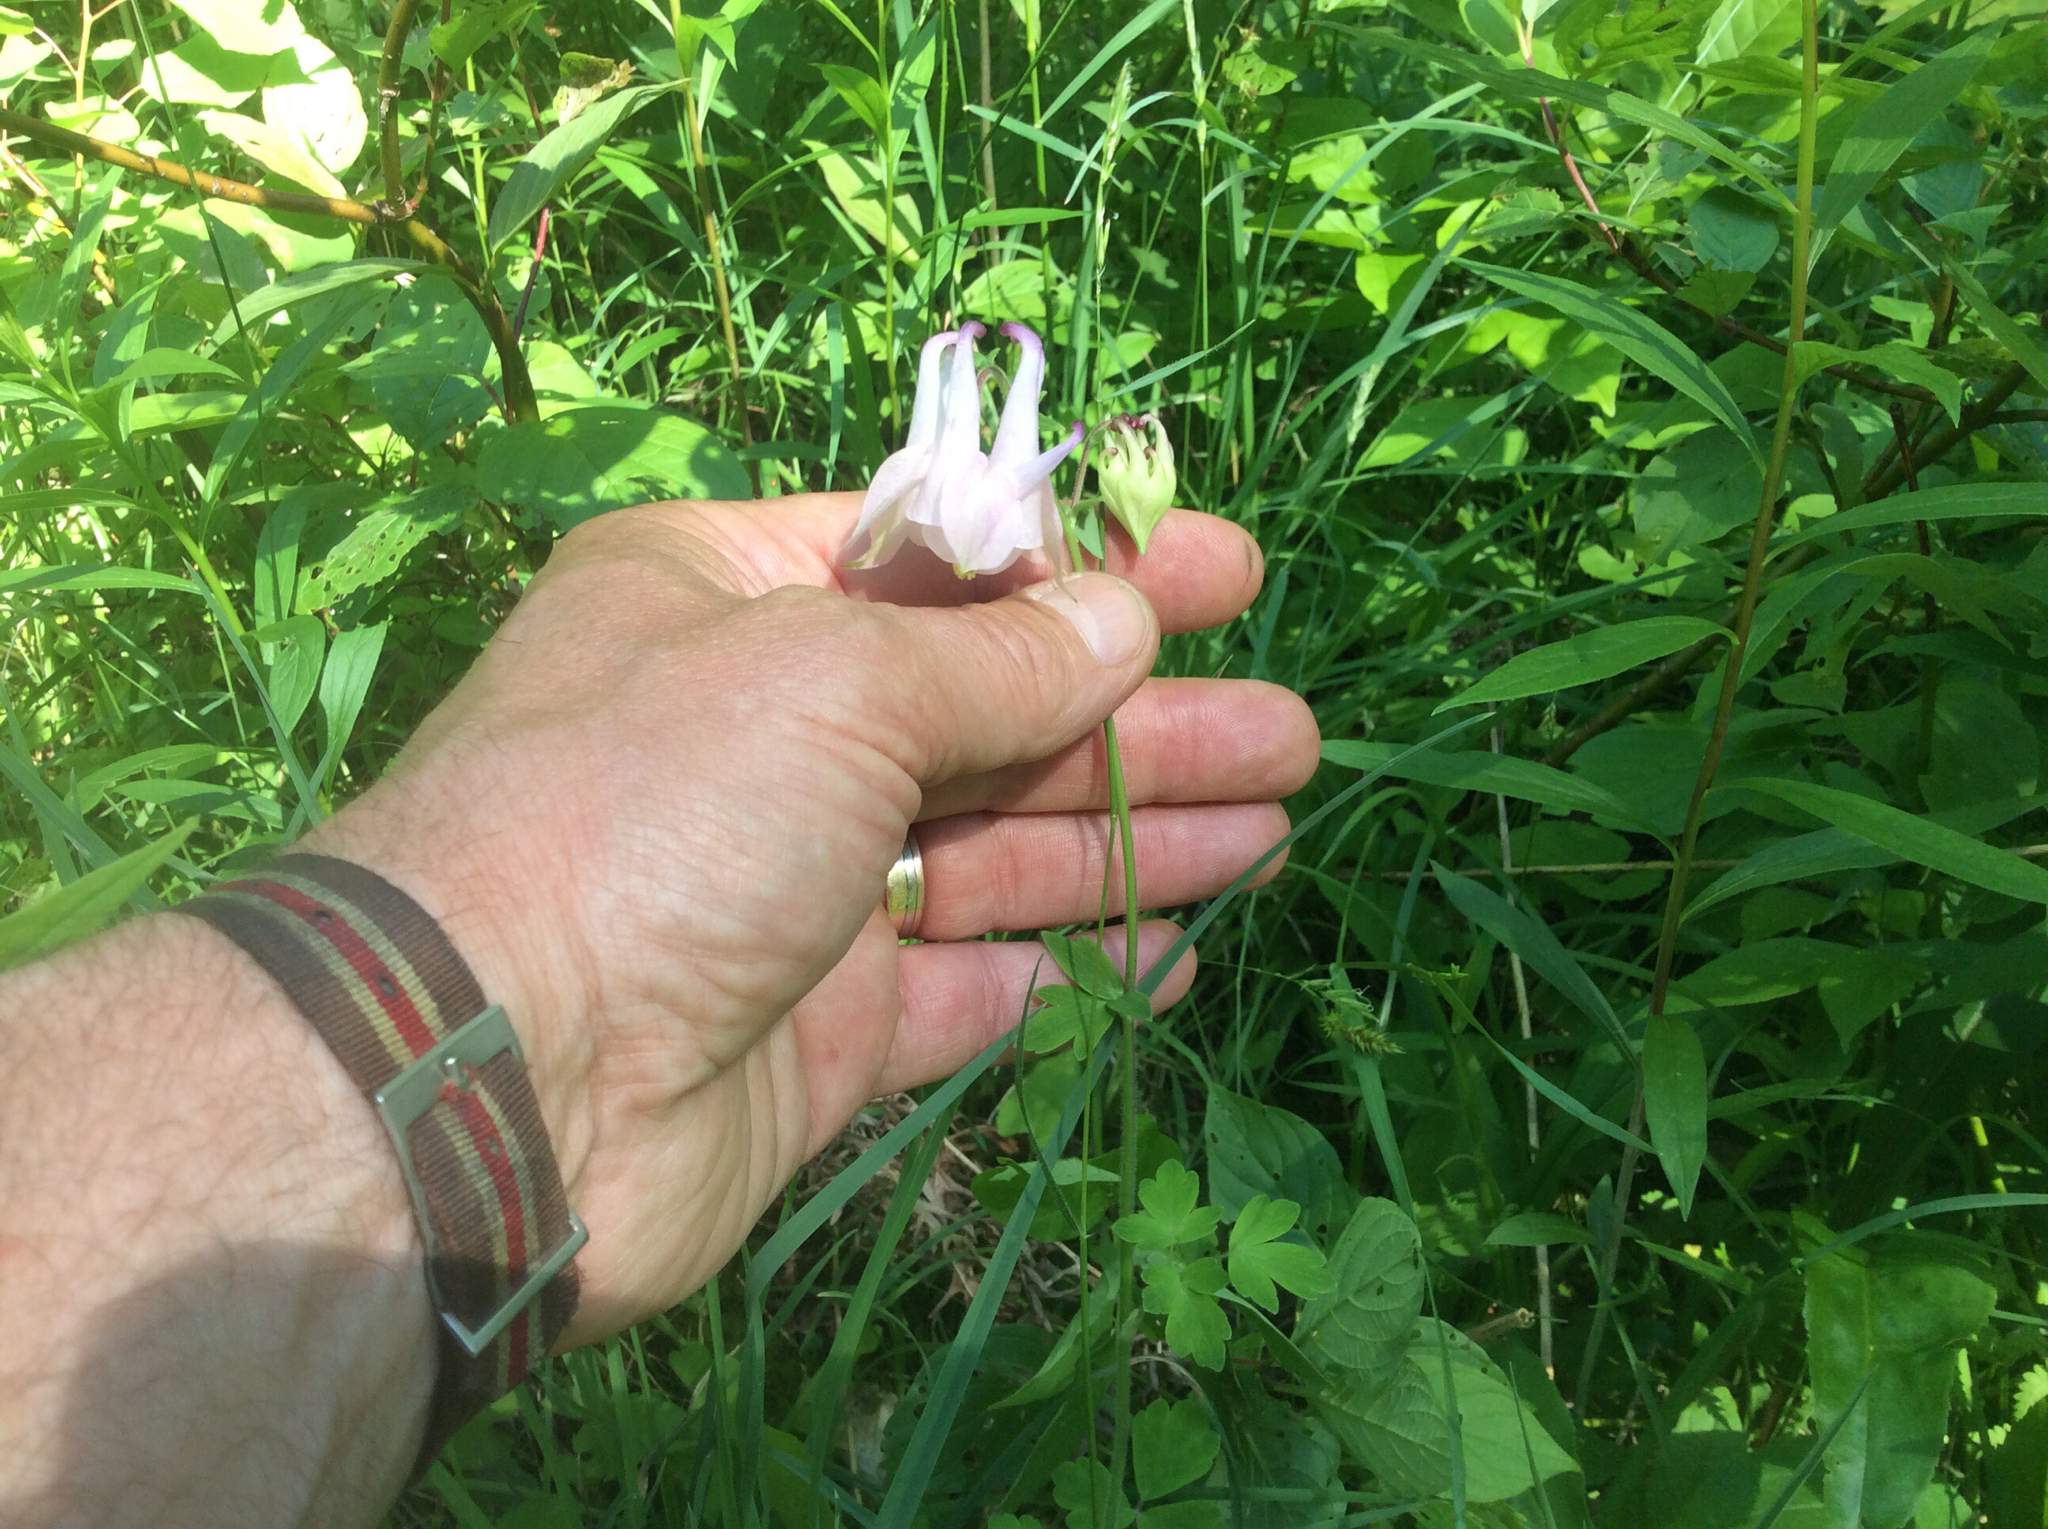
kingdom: Plantae
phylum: Tracheophyta
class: Magnoliopsida
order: Ranunculales
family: Ranunculaceae
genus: Aquilegia
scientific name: Aquilegia vulgaris
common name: Columbine
